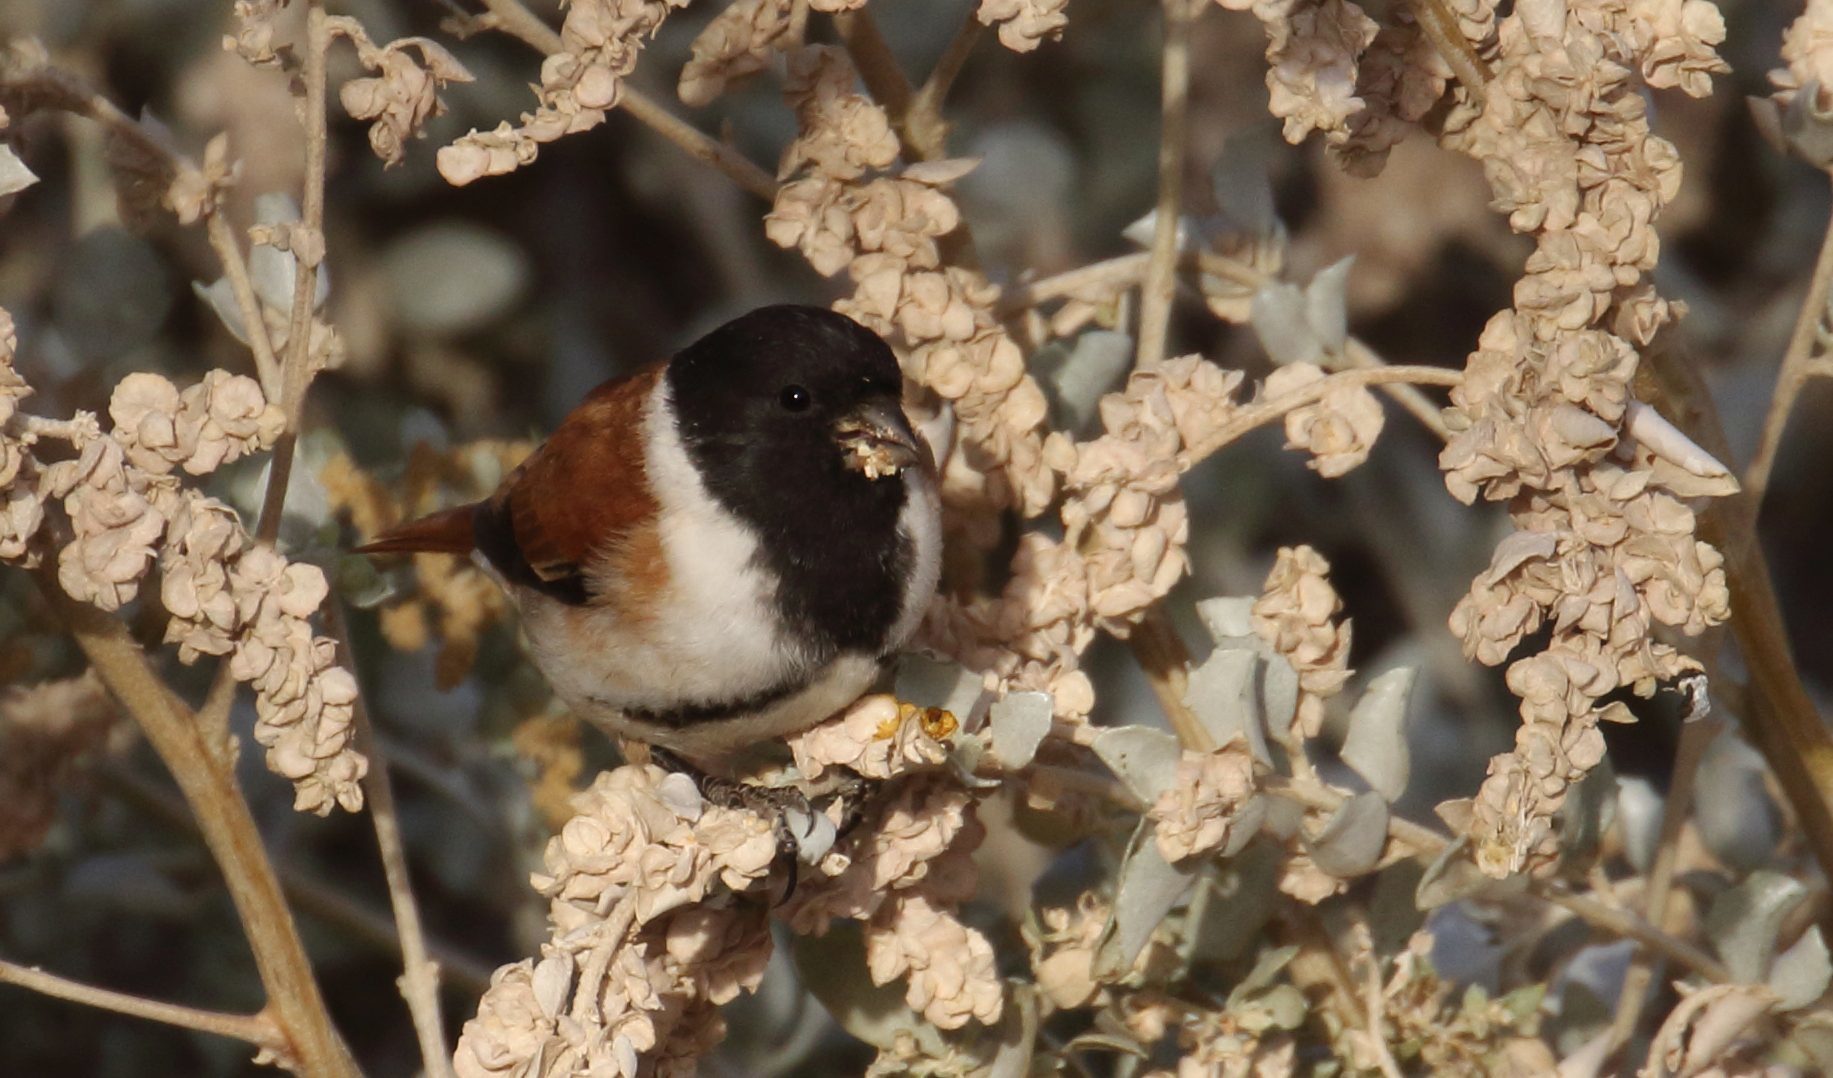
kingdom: Plantae
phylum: Tracheophyta
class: Magnoliopsida
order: Caryophyllales
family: Amaranthaceae
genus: Atriplex
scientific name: Atriplex nummularia
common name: Bluegreen saltbush
